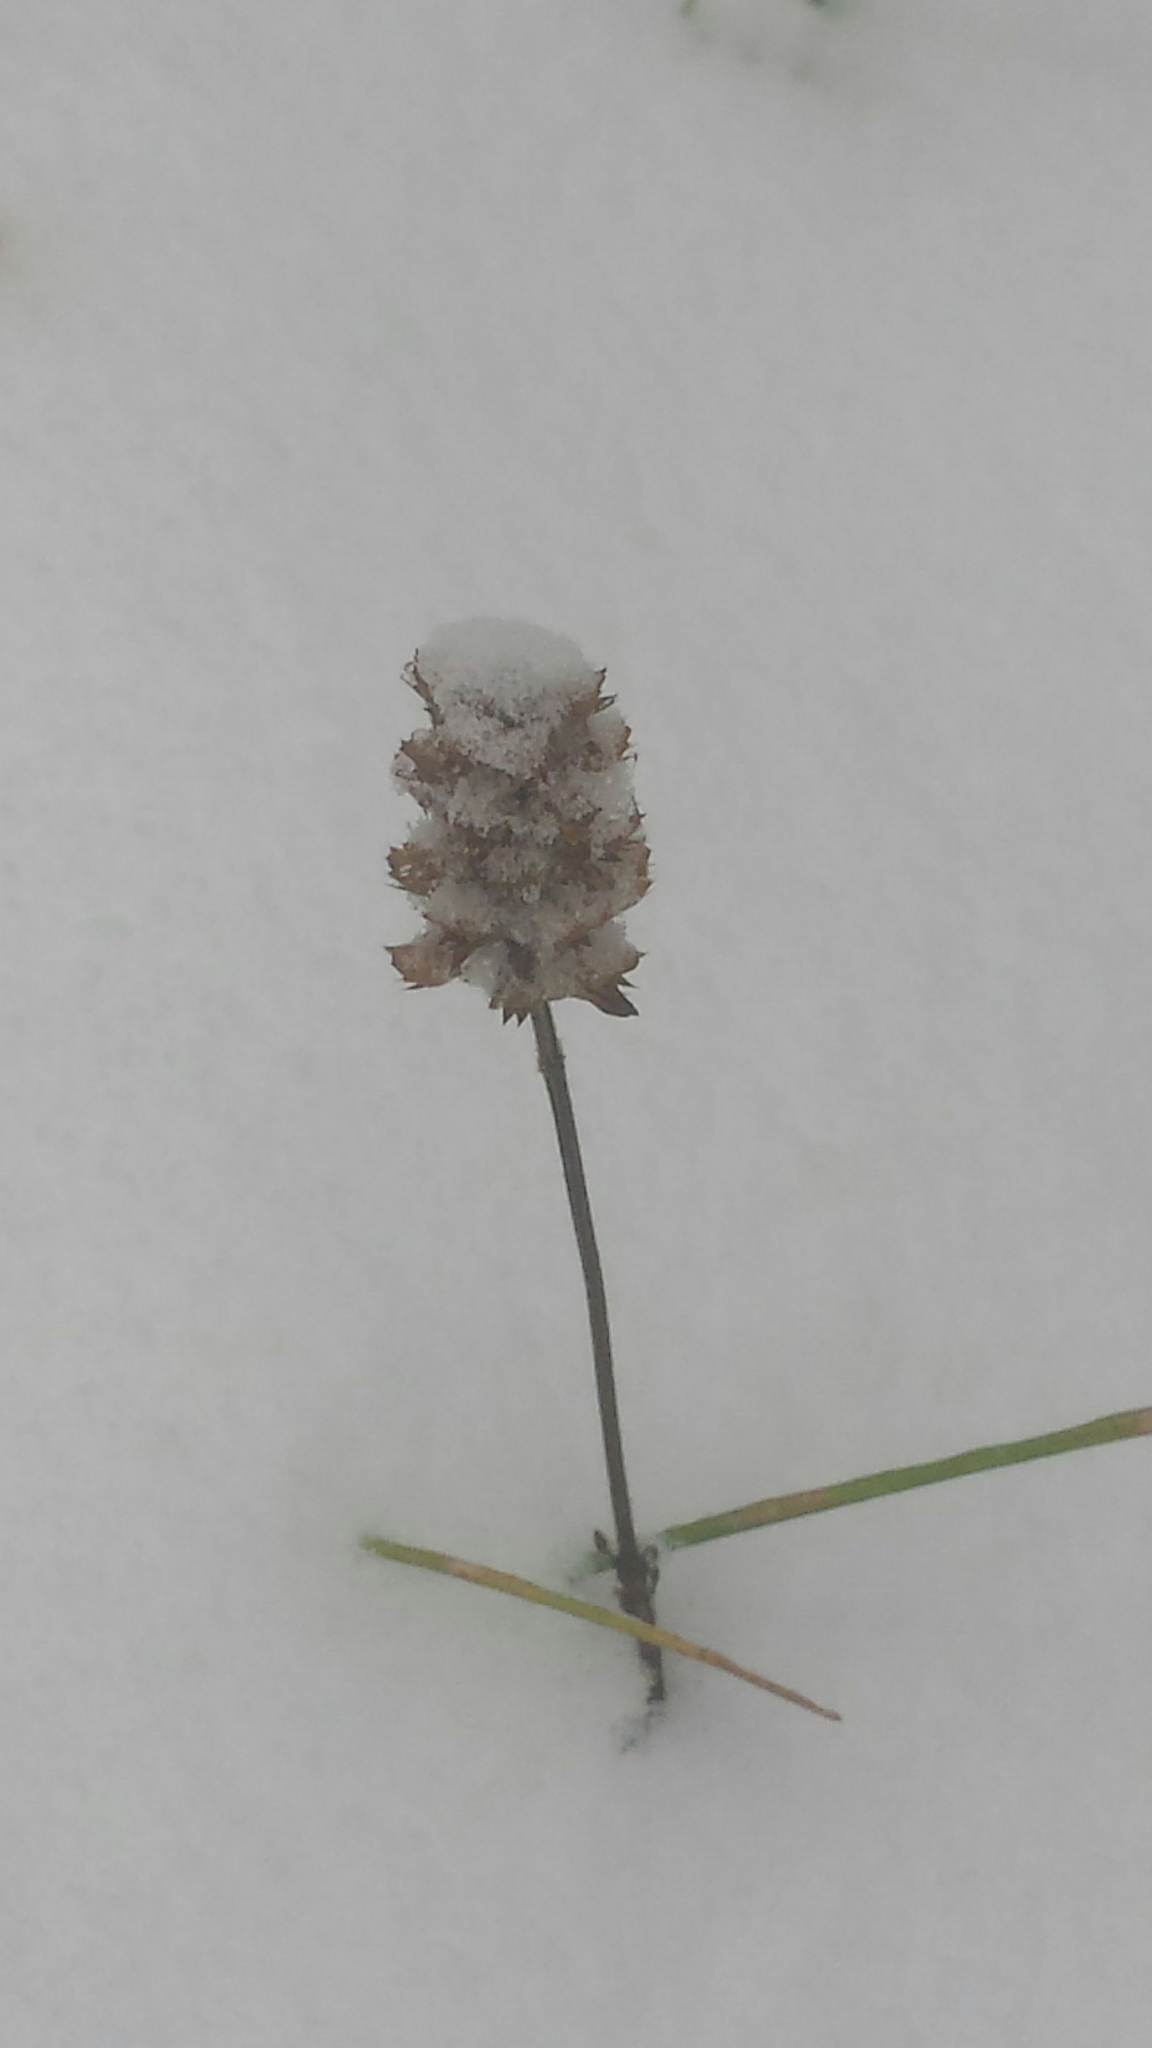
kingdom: Plantae
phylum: Tracheophyta
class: Magnoliopsida
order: Lamiales
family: Lamiaceae
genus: Prunella
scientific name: Prunella vulgaris
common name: Heal-all
